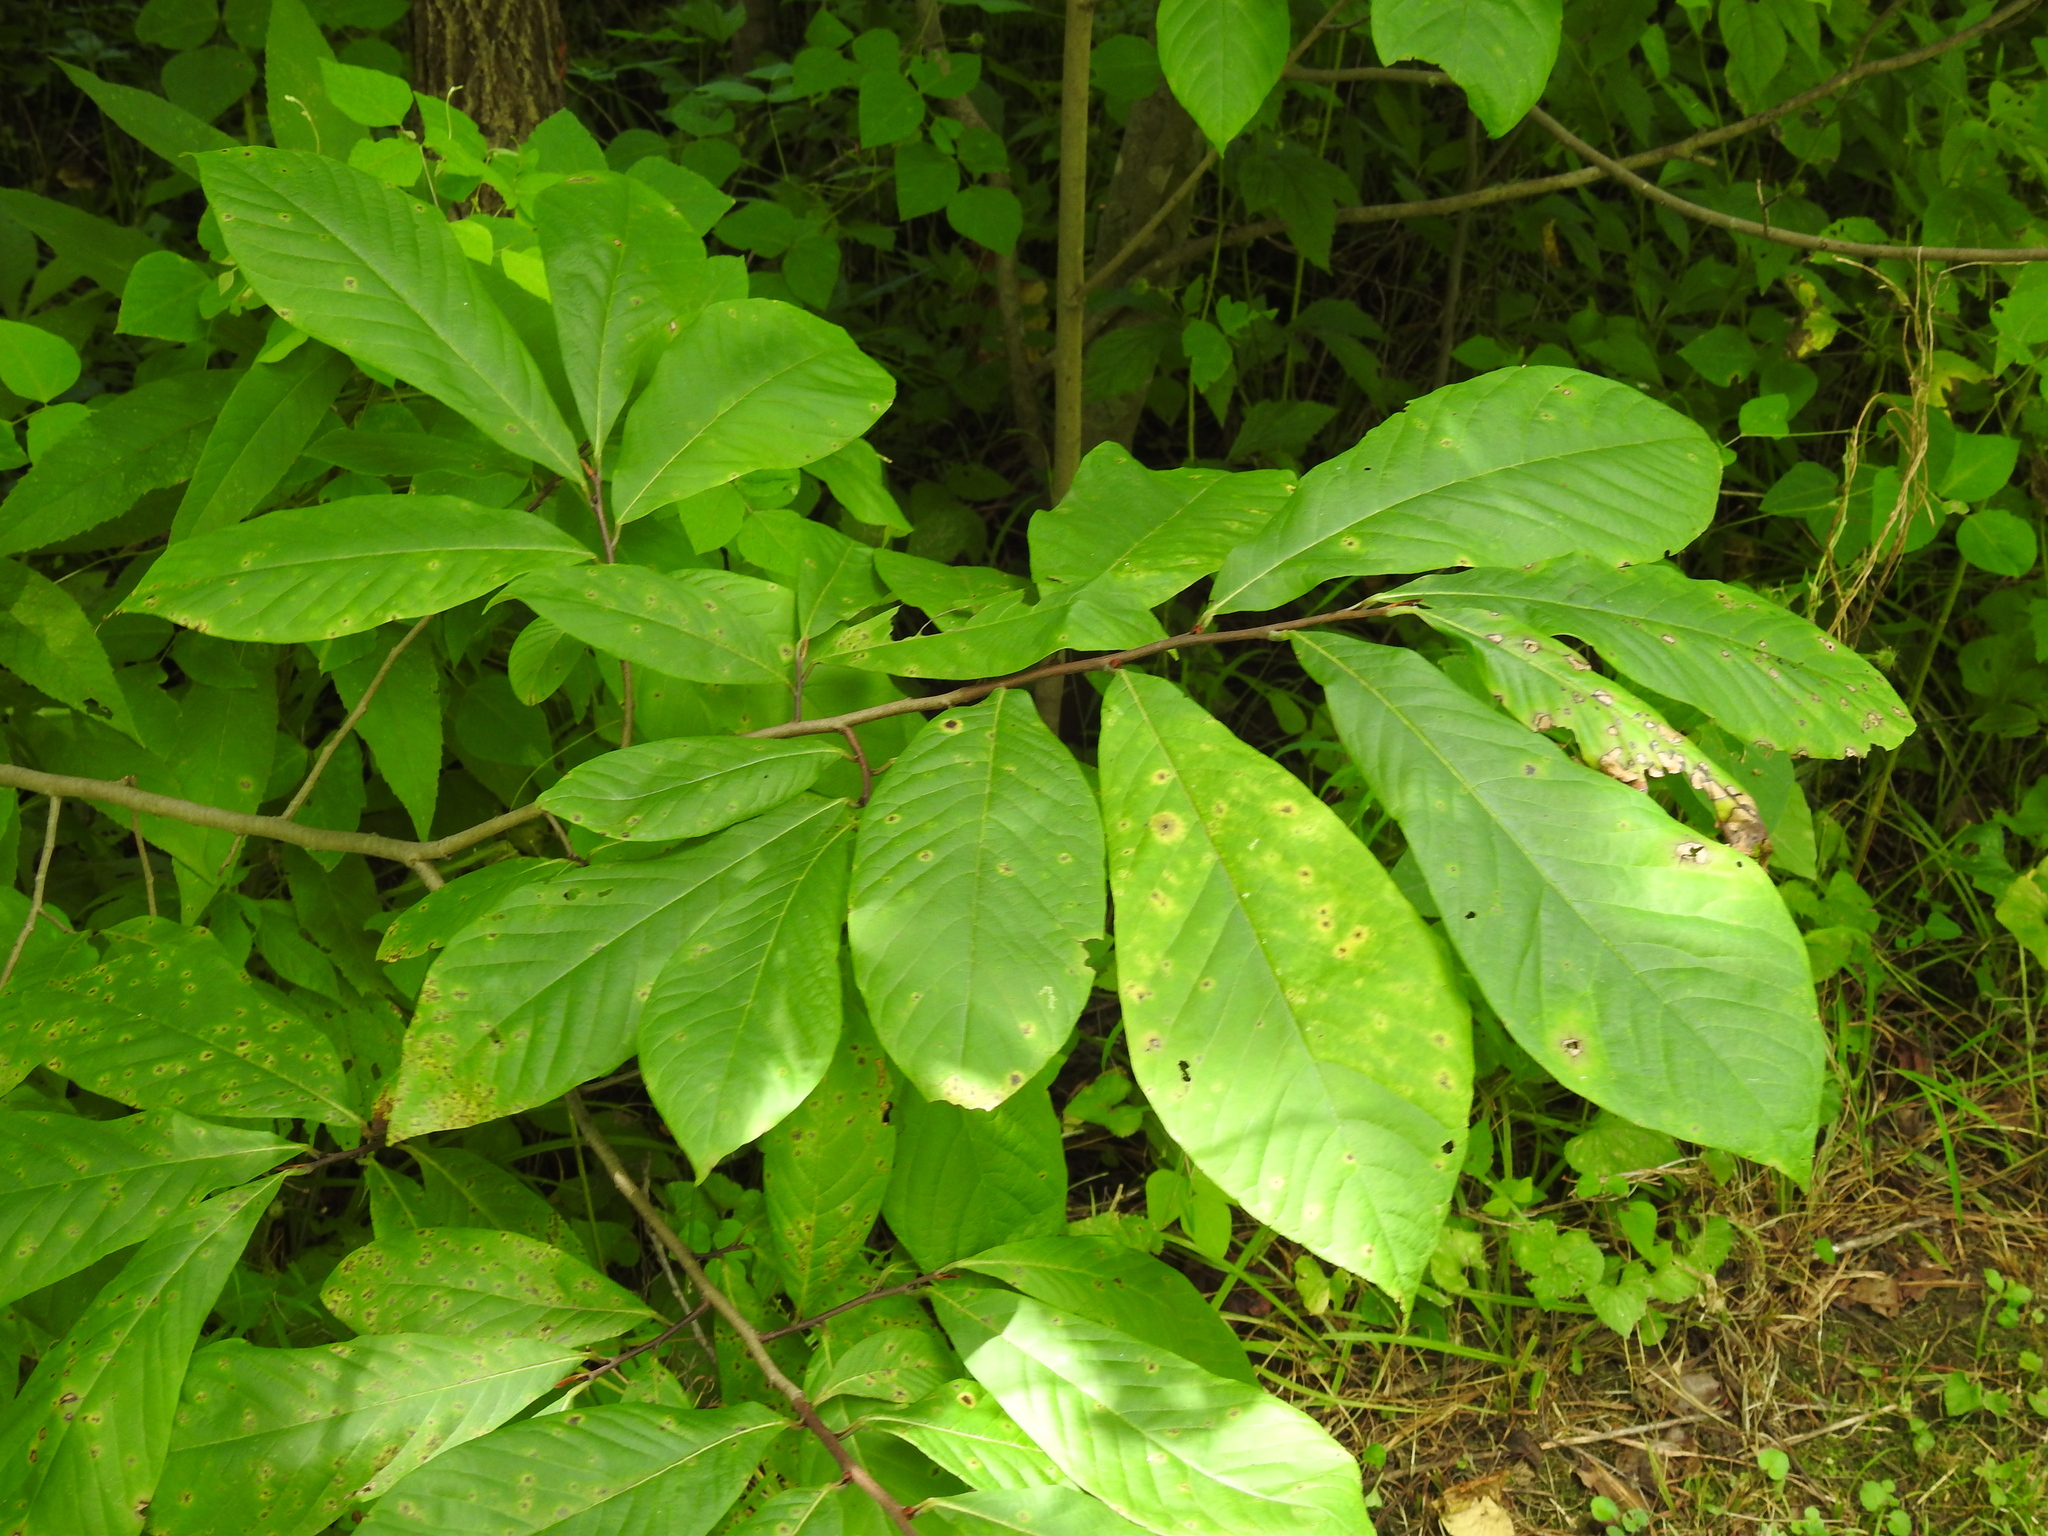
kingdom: Plantae
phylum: Tracheophyta
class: Magnoliopsida
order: Magnoliales
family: Annonaceae
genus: Asimina
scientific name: Asimina triloba
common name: Dog-banana
